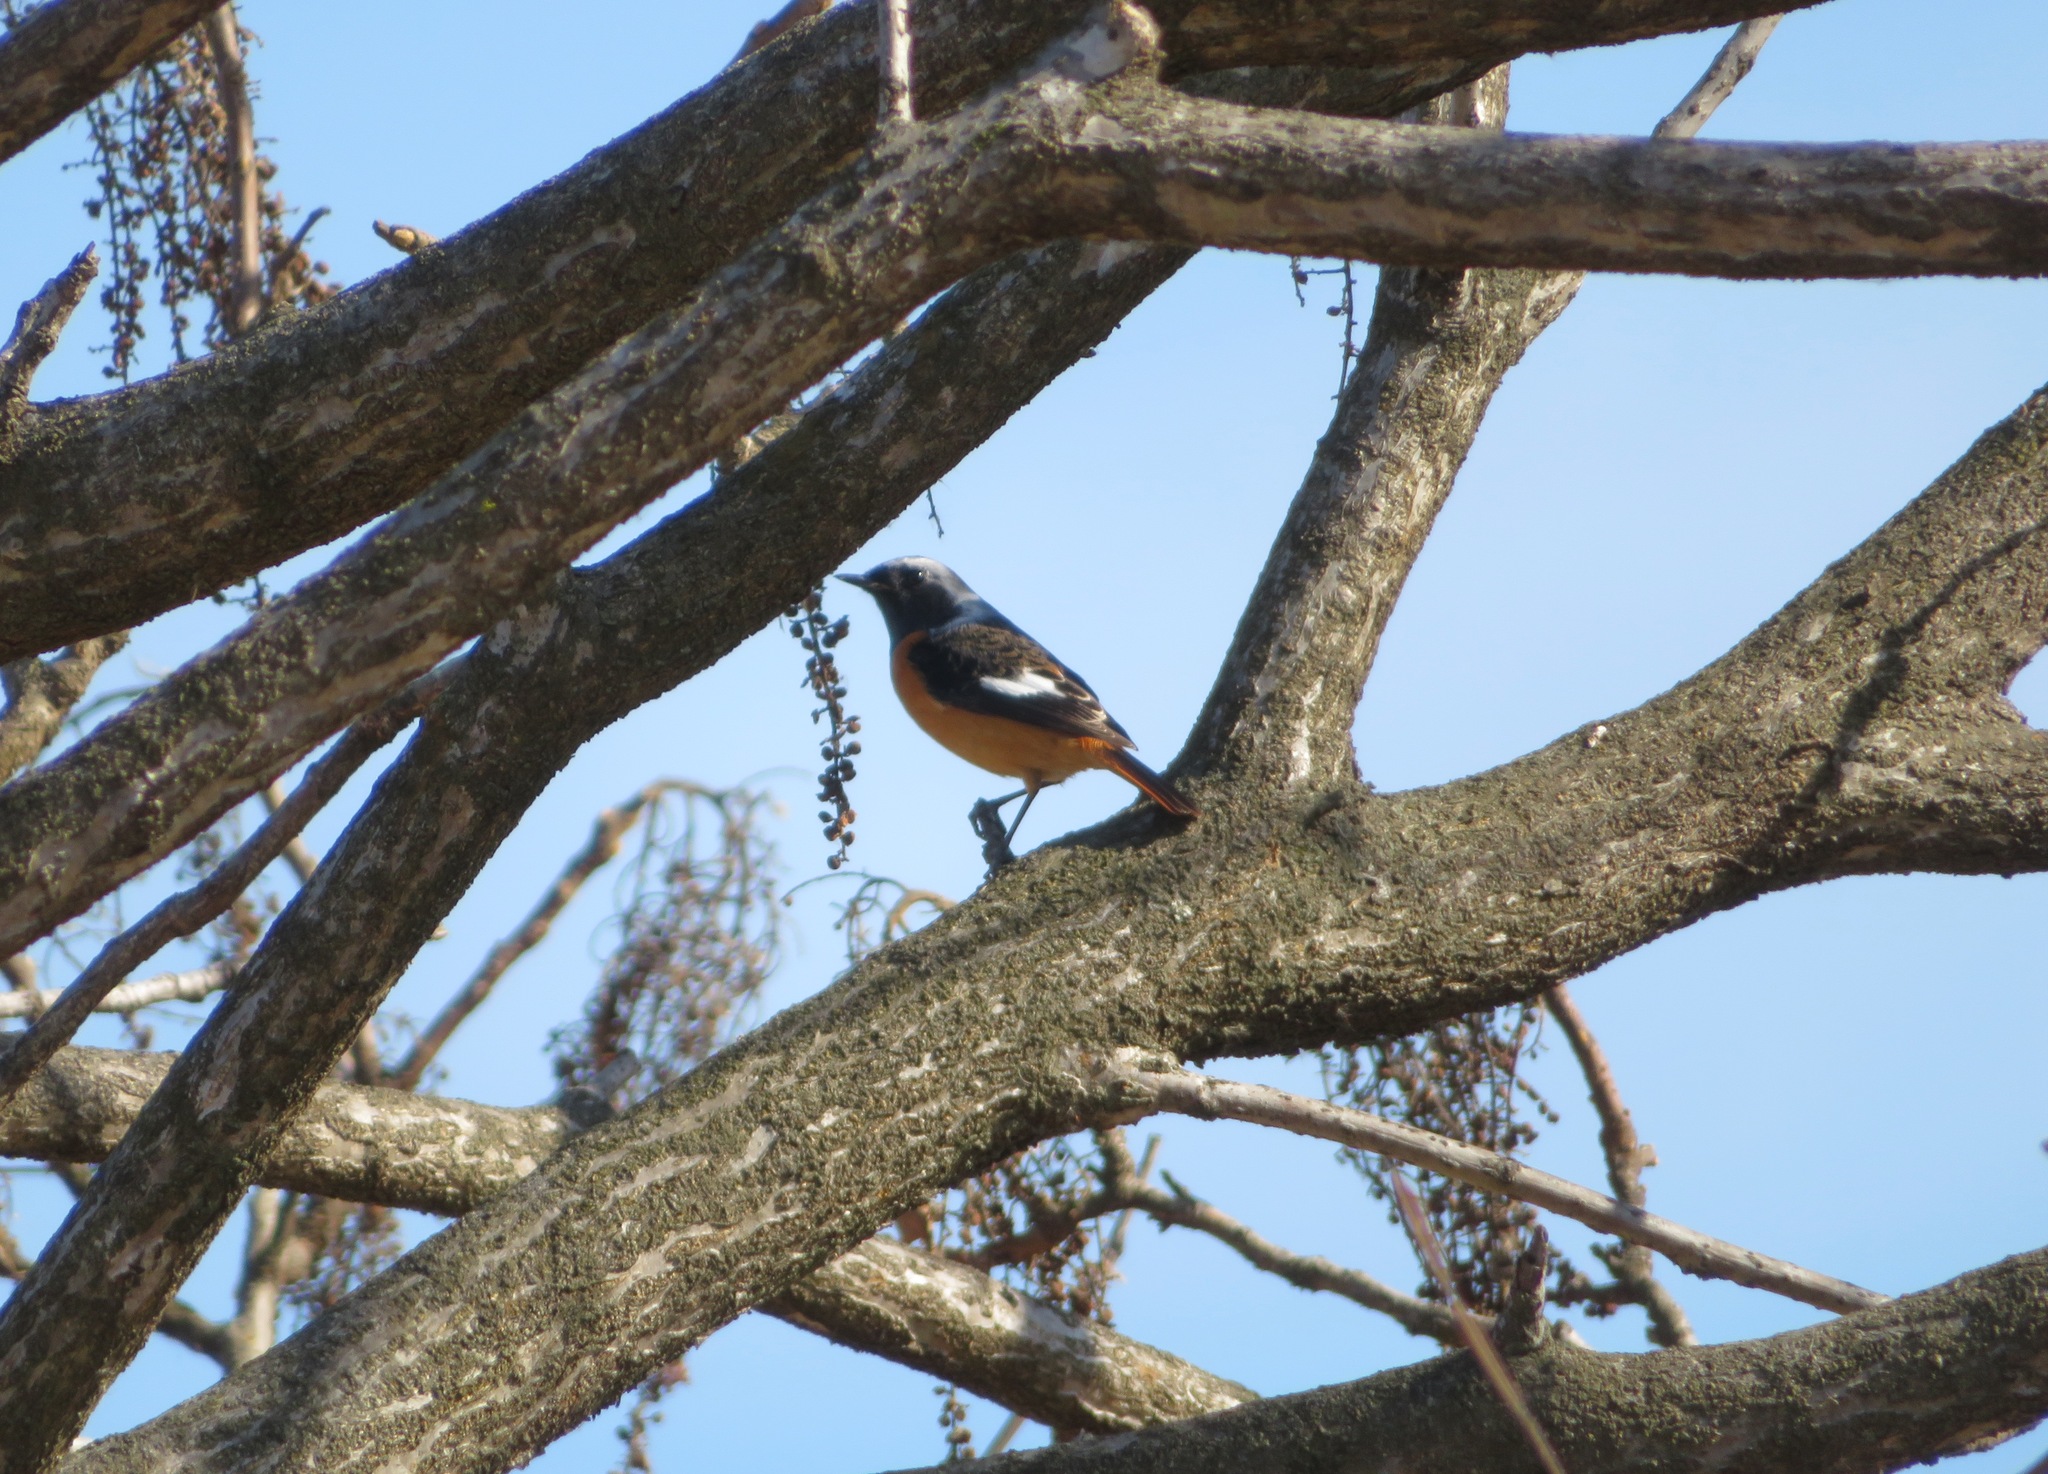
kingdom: Animalia
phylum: Chordata
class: Aves
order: Passeriformes
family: Muscicapidae
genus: Phoenicurus
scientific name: Phoenicurus auroreus
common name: Daurian redstart
